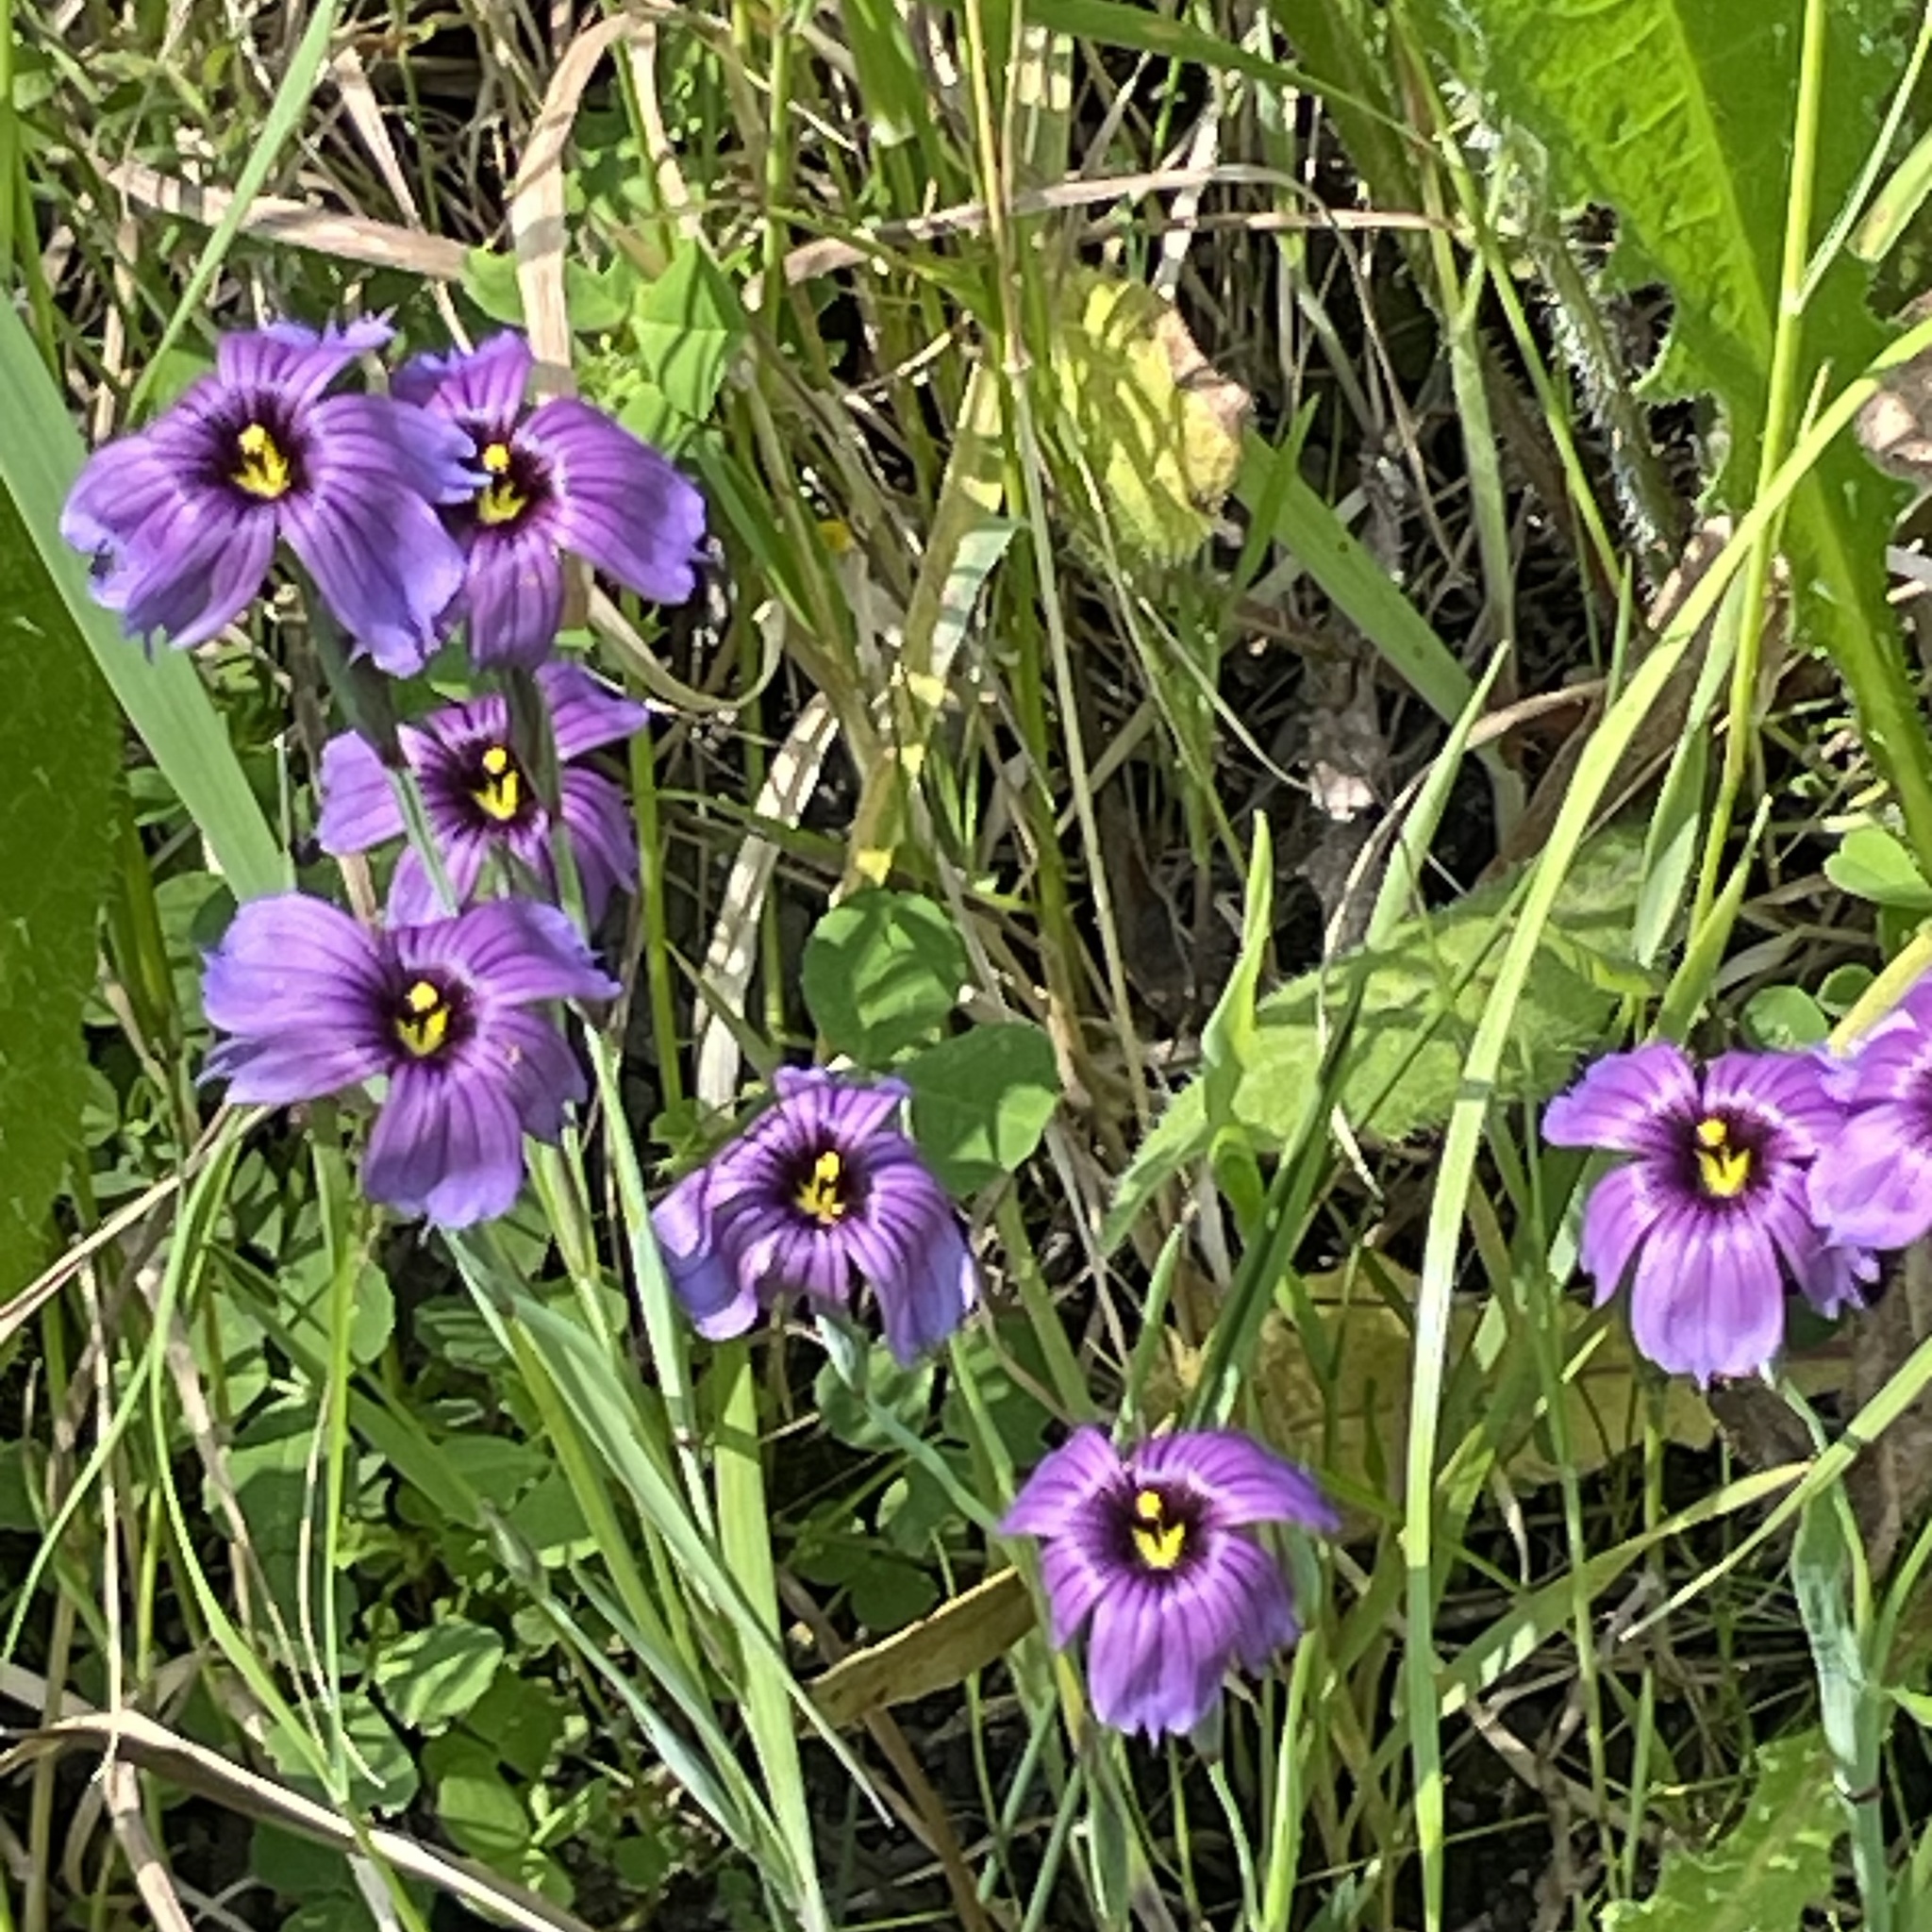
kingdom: Plantae
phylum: Tracheophyta
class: Liliopsida
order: Asparagales
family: Iridaceae
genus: Sisyrinchium
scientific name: Sisyrinchium bellum
